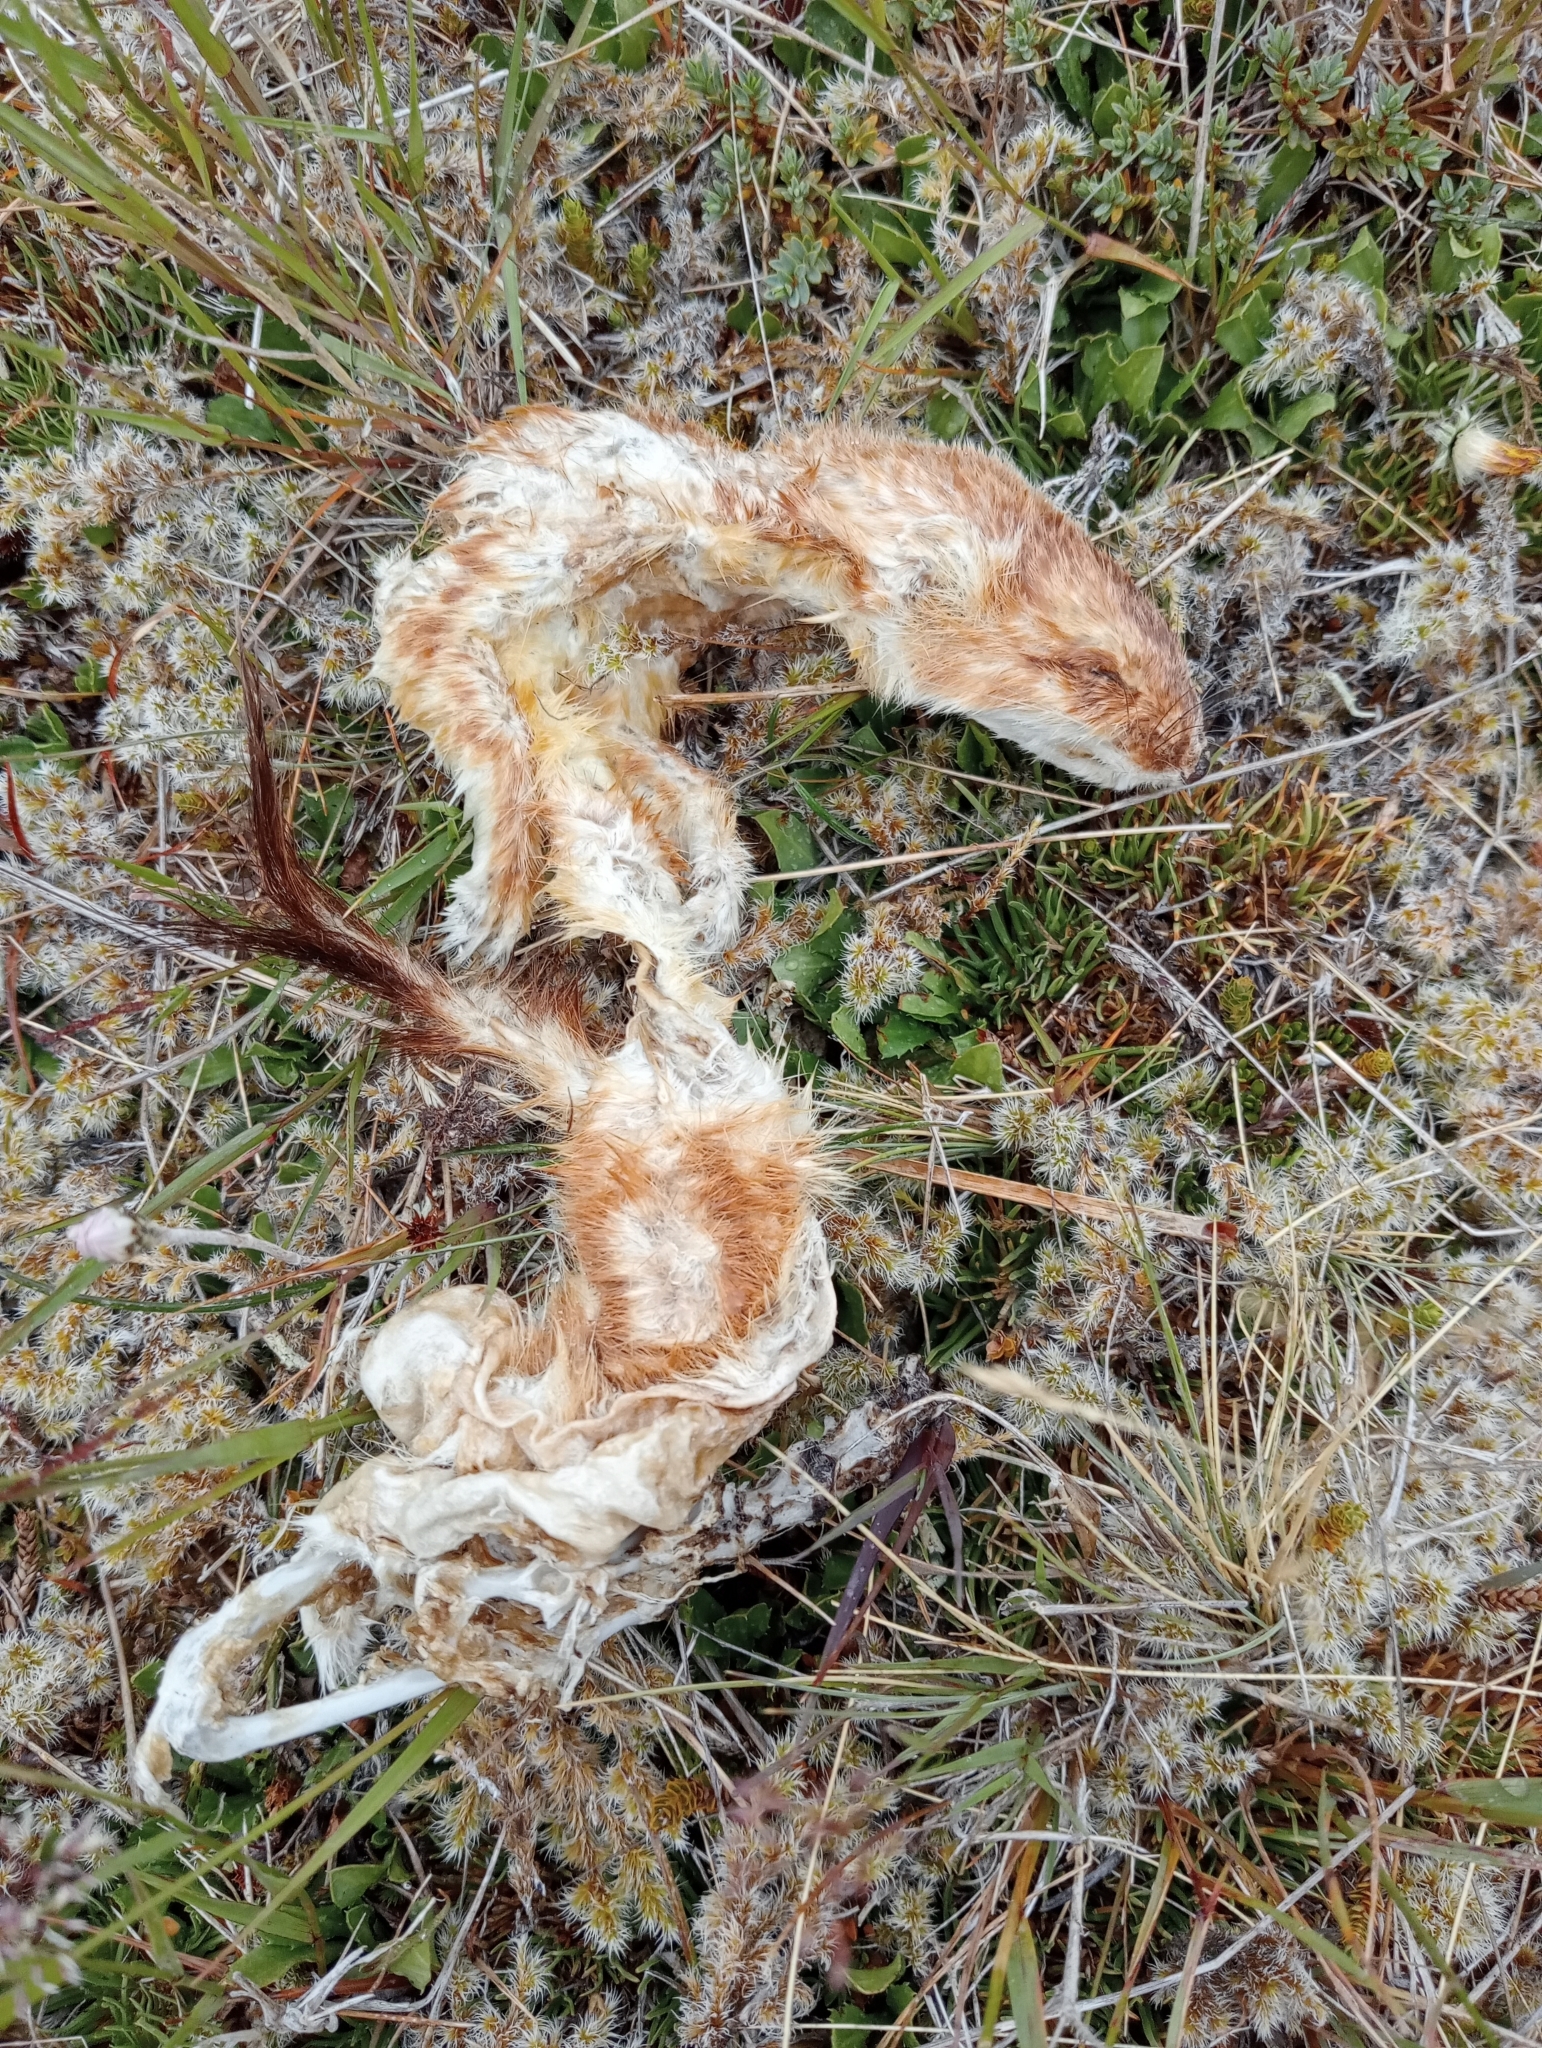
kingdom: Animalia
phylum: Chordata
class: Mammalia
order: Carnivora
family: Mustelidae
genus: Mustela
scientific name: Mustela erminea
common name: Stoat
